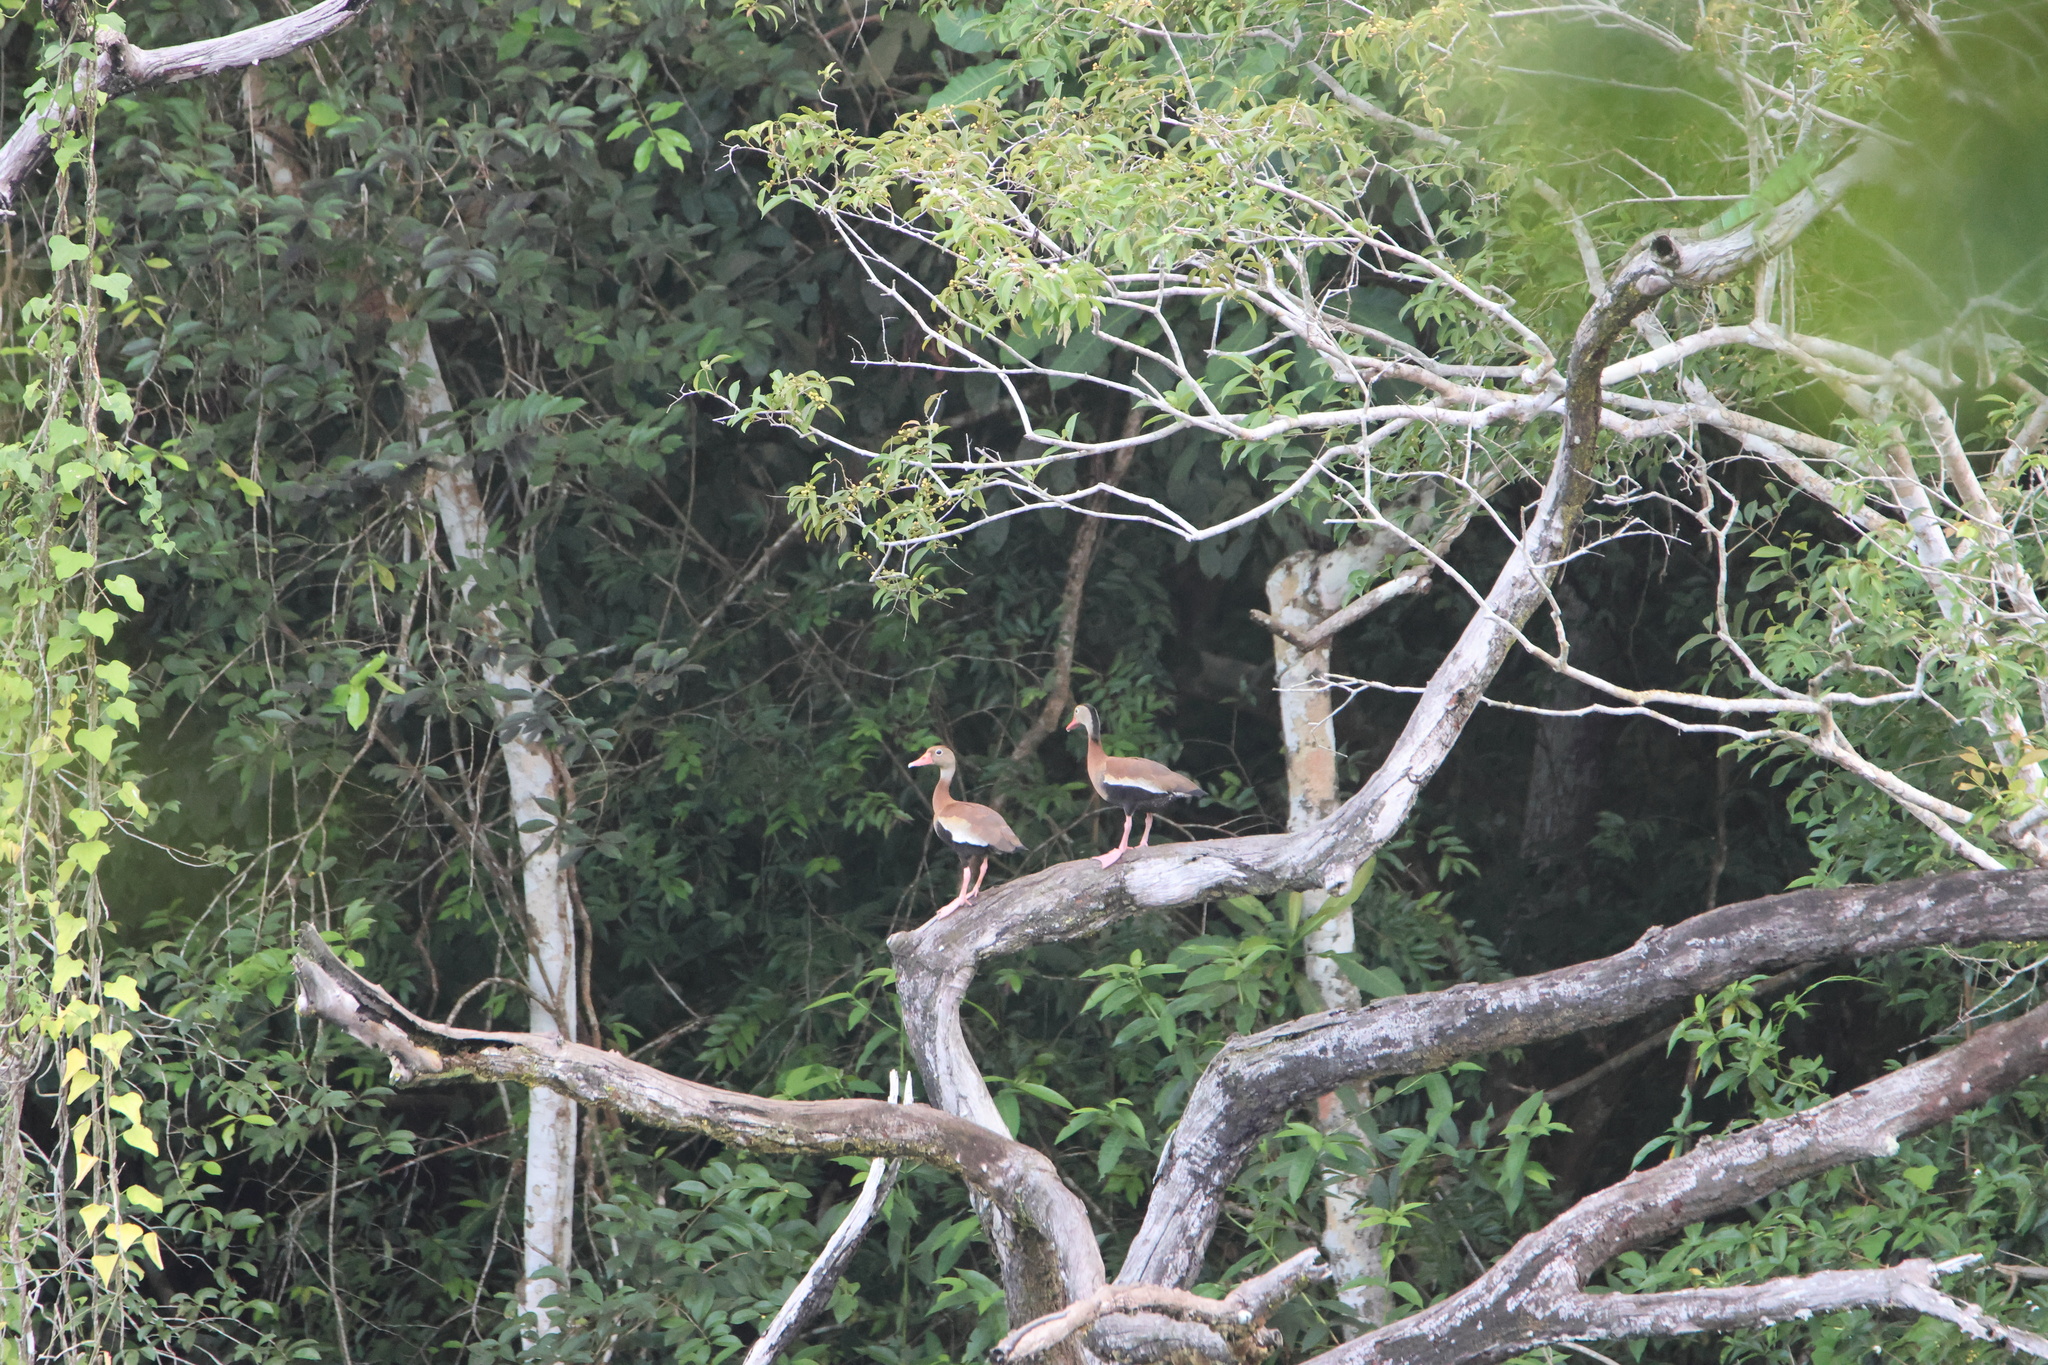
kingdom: Animalia
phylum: Chordata
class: Aves
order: Anseriformes
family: Anatidae
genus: Dendrocygna
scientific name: Dendrocygna autumnalis
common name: Black-bellied whistling duck
